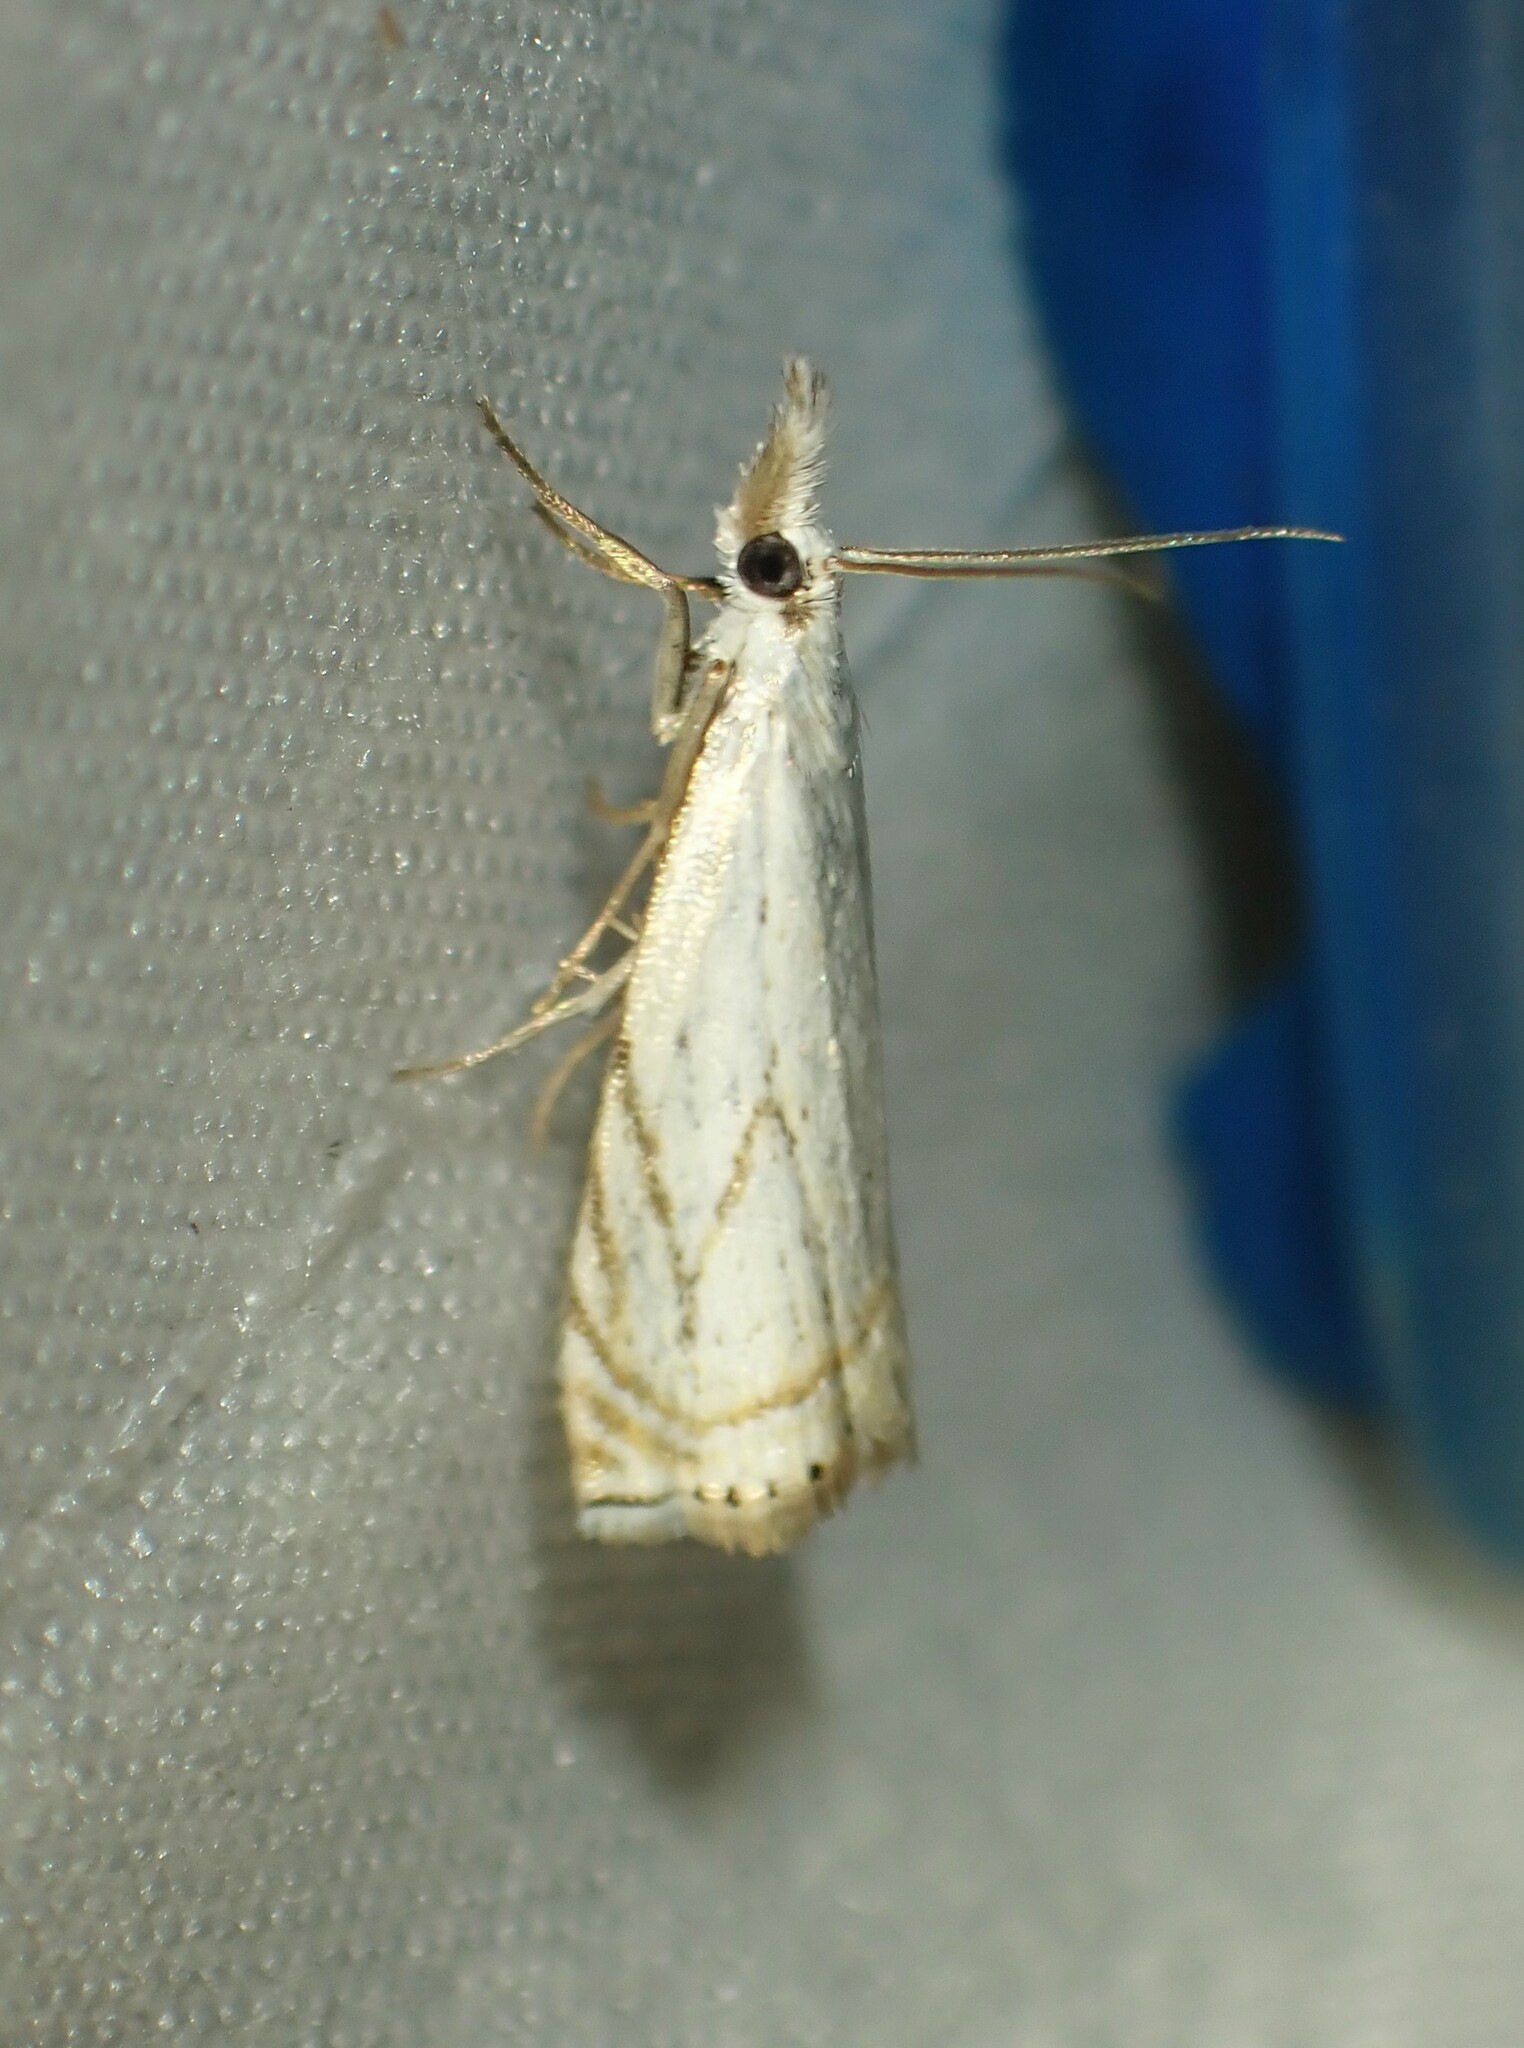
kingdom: Animalia
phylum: Arthropoda
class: Insecta
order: Lepidoptera
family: Crambidae
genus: Crambus
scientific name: Crambus albellus
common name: Small white grass-veneer
